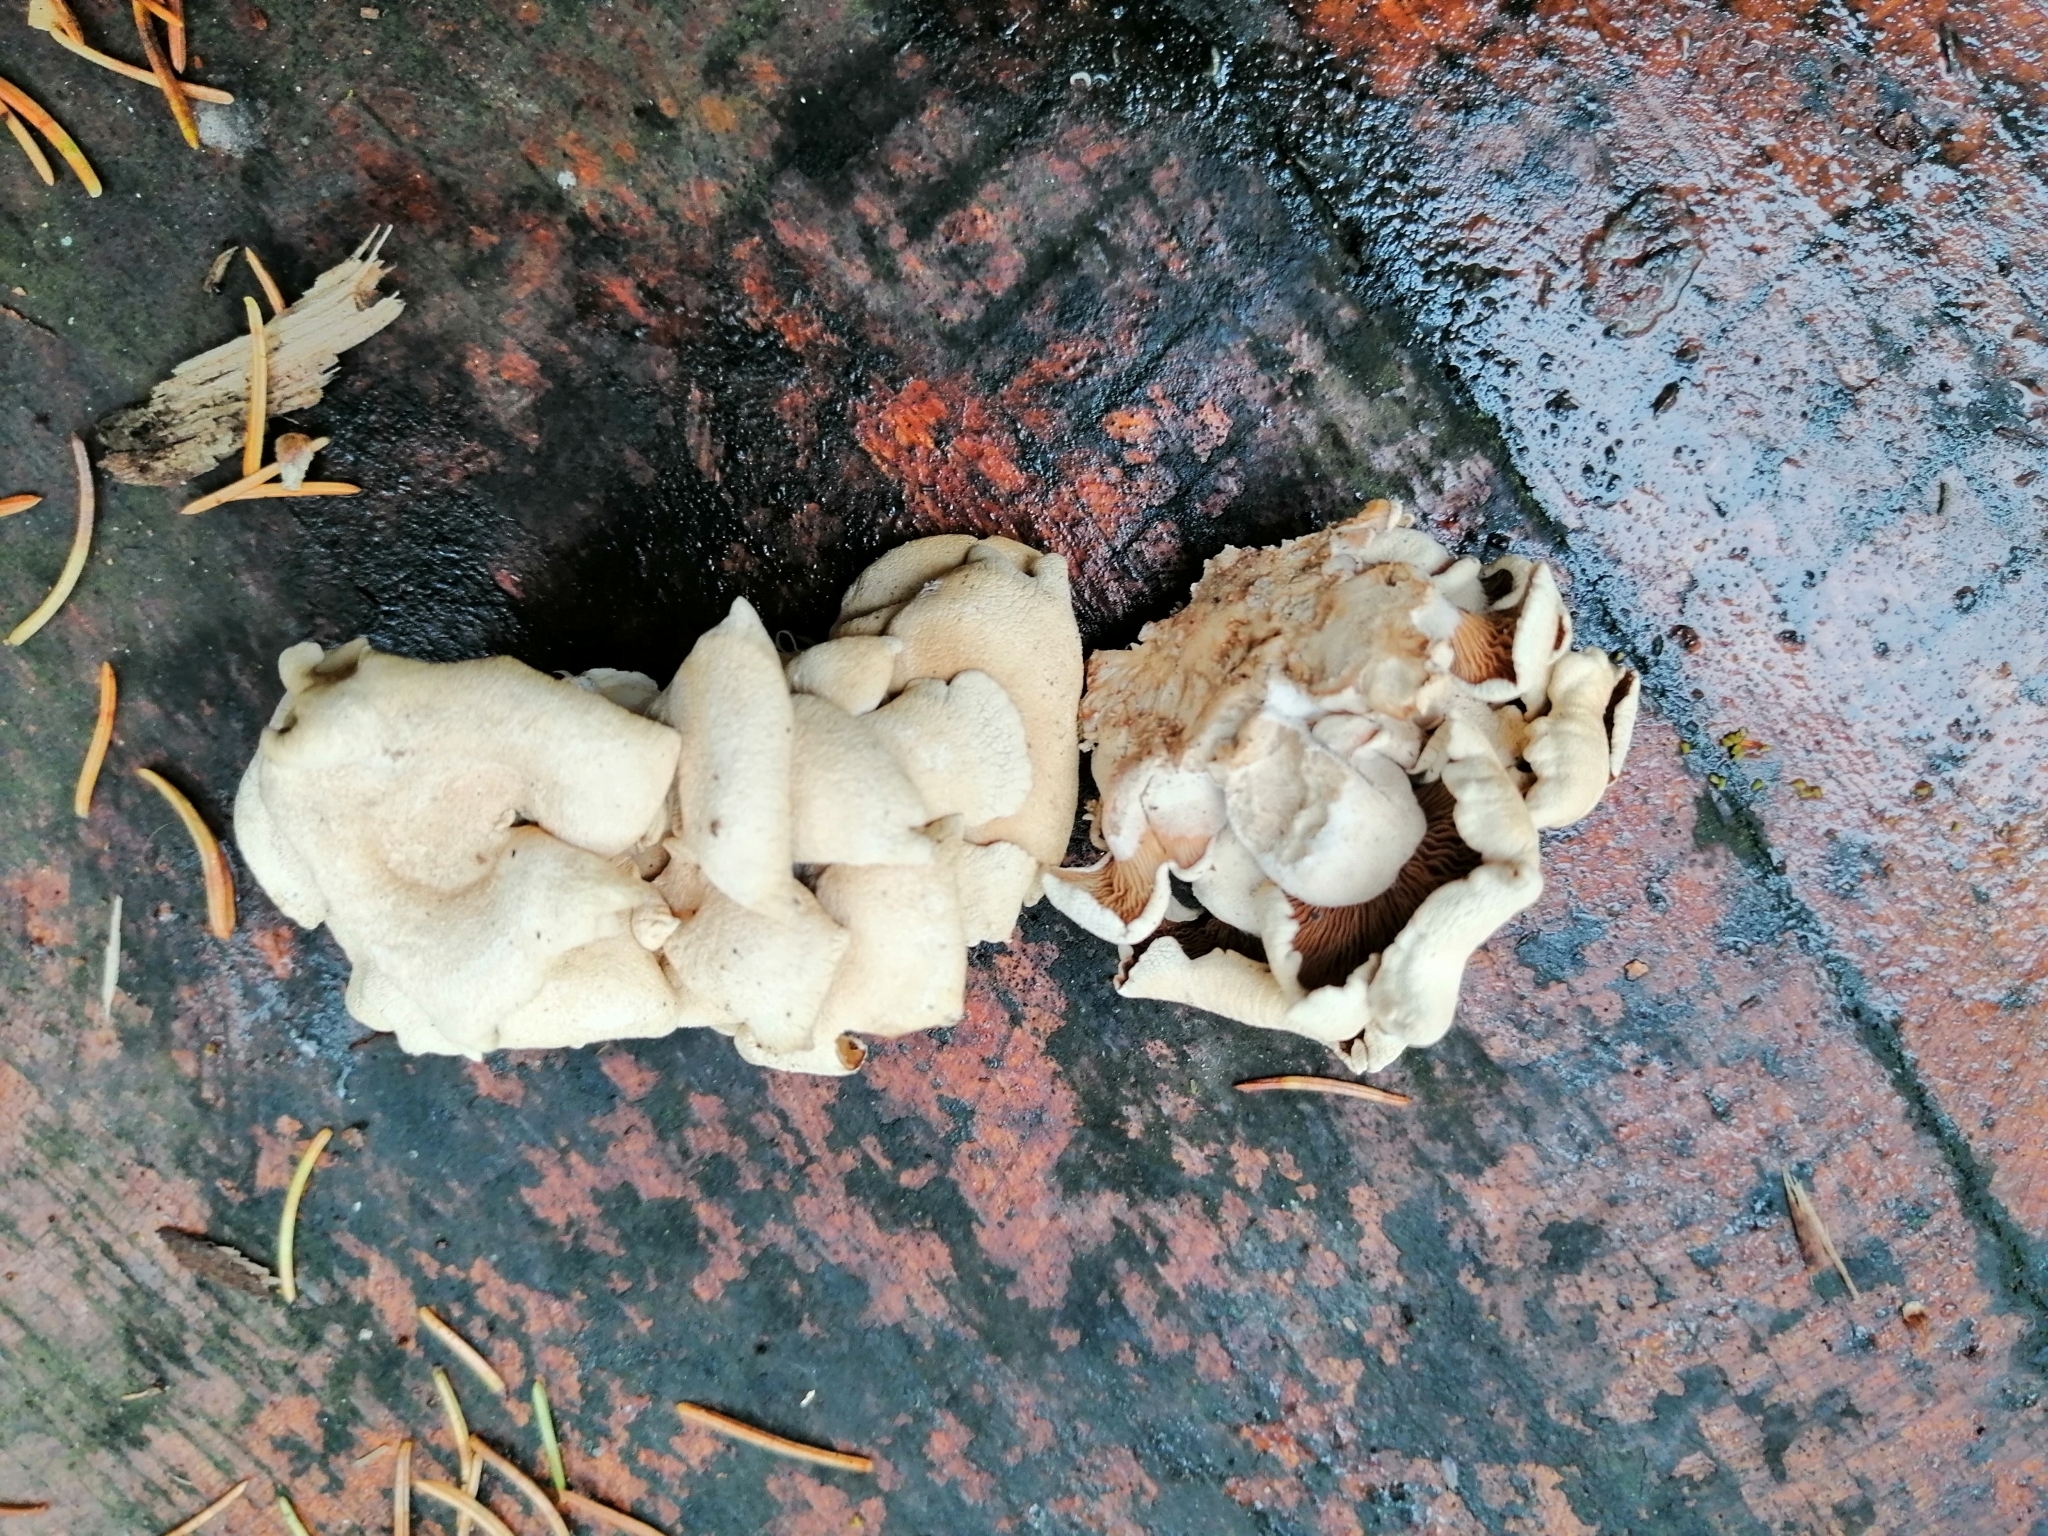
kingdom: Fungi
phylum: Basidiomycota
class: Agaricomycetes
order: Agaricales
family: Mycenaceae
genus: Panellus
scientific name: Panellus stipticus
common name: Bitter oysterling
